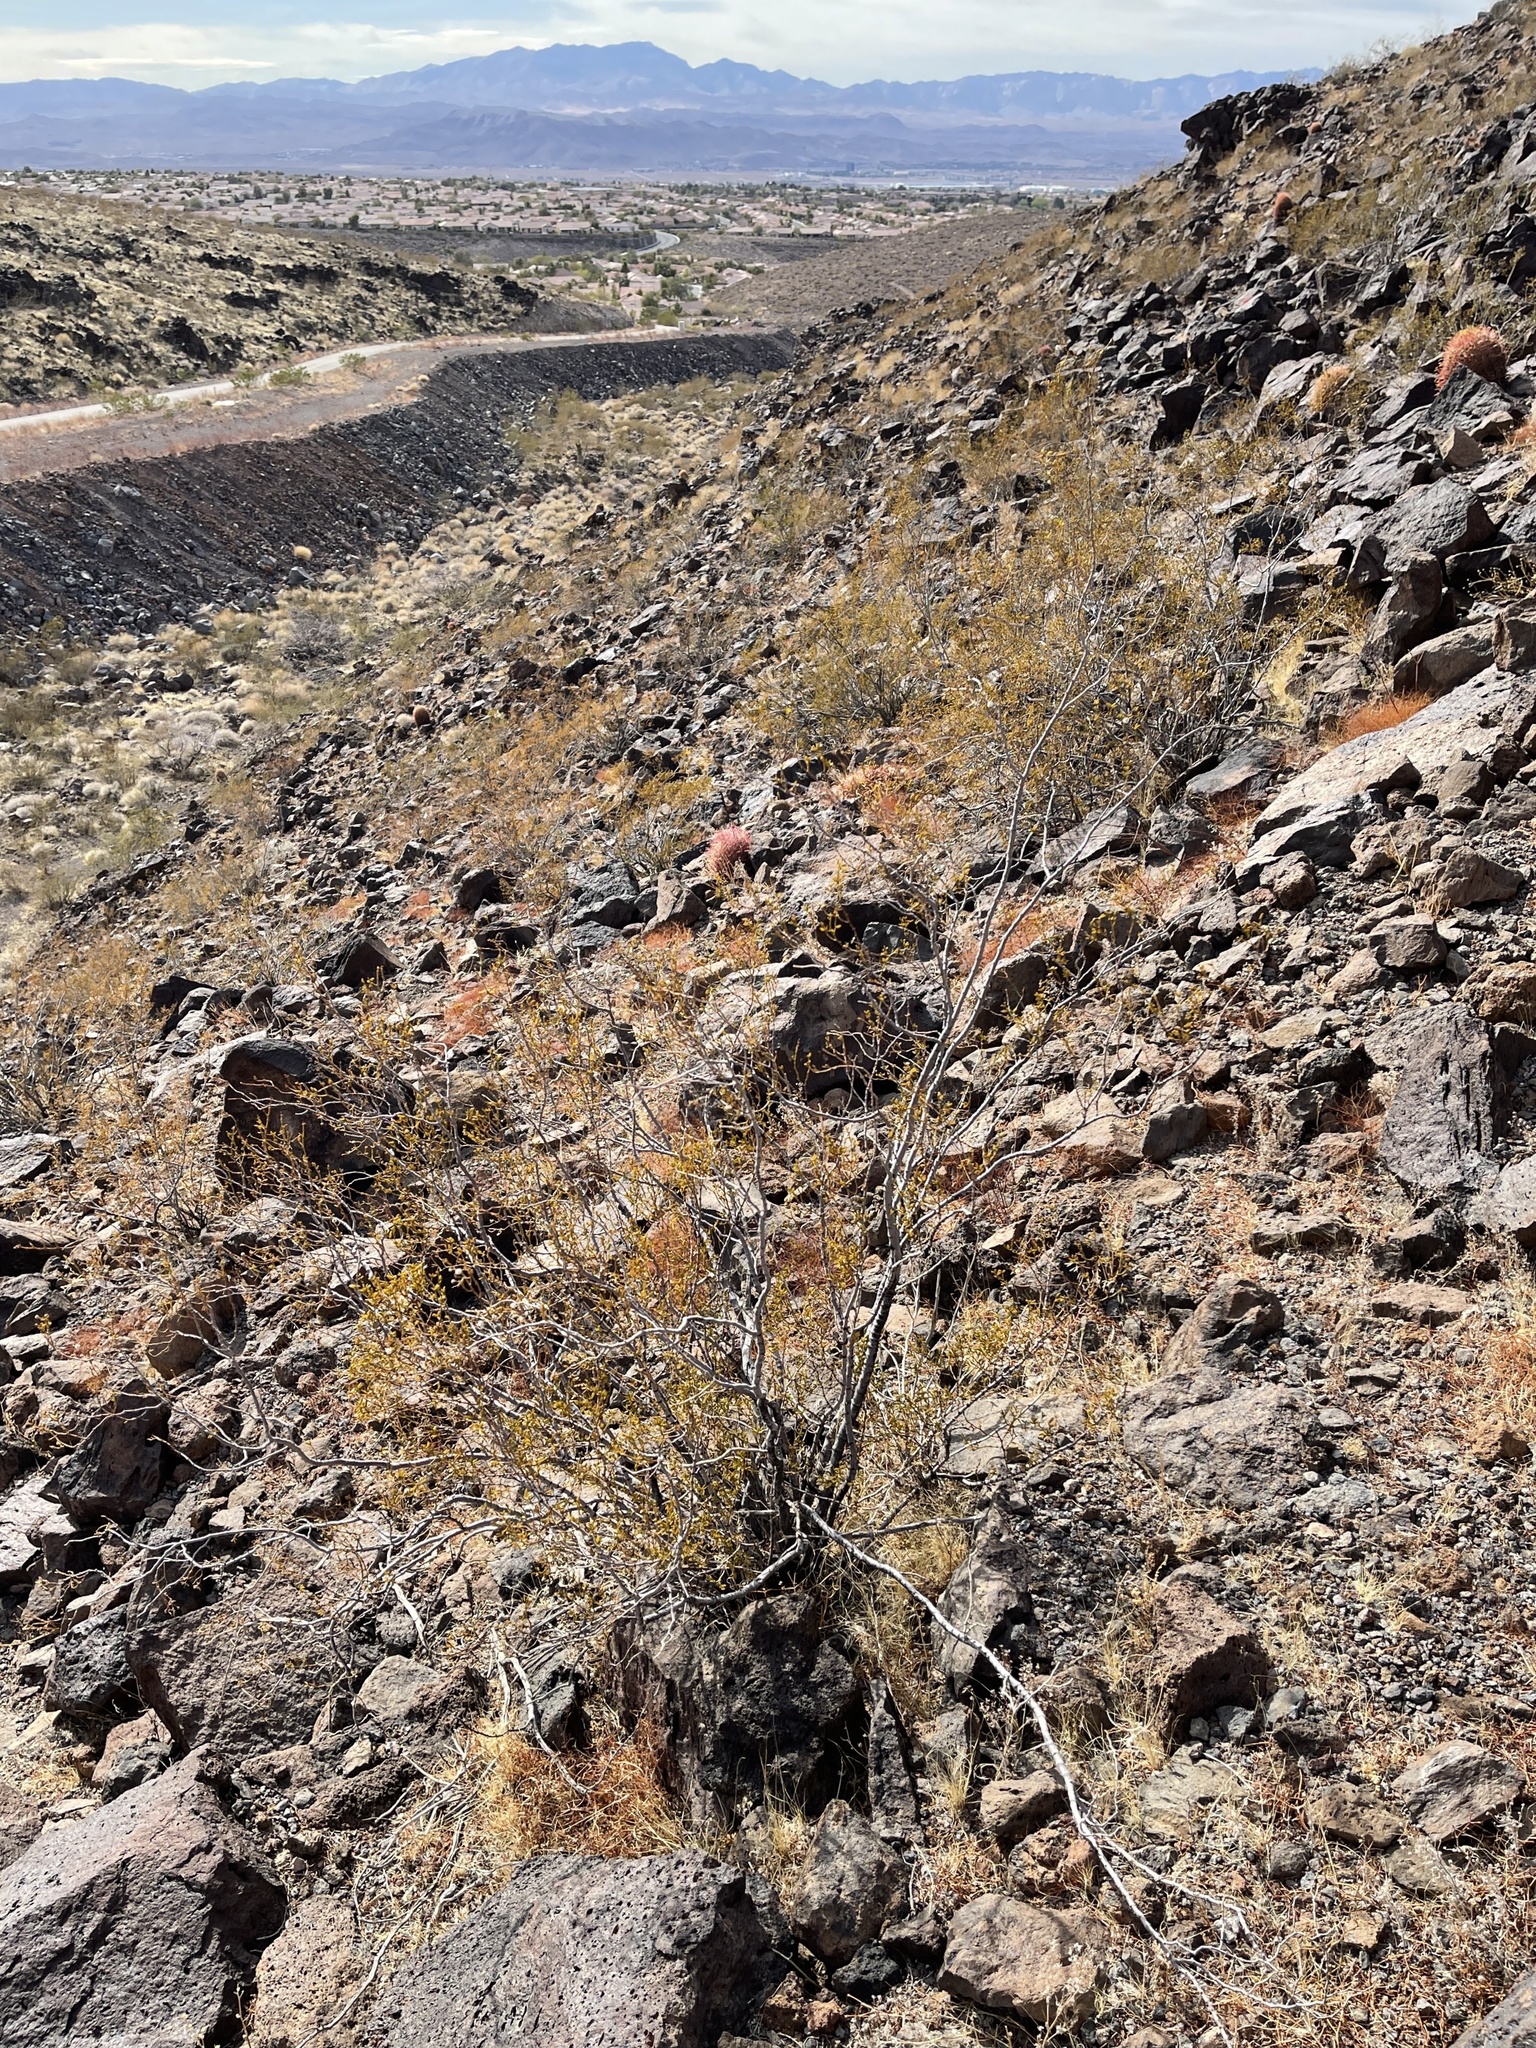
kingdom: Plantae
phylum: Tracheophyta
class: Magnoliopsida
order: Zygophyllales
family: Zygophyllaceae
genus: Larrea
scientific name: Larrea tridentata
